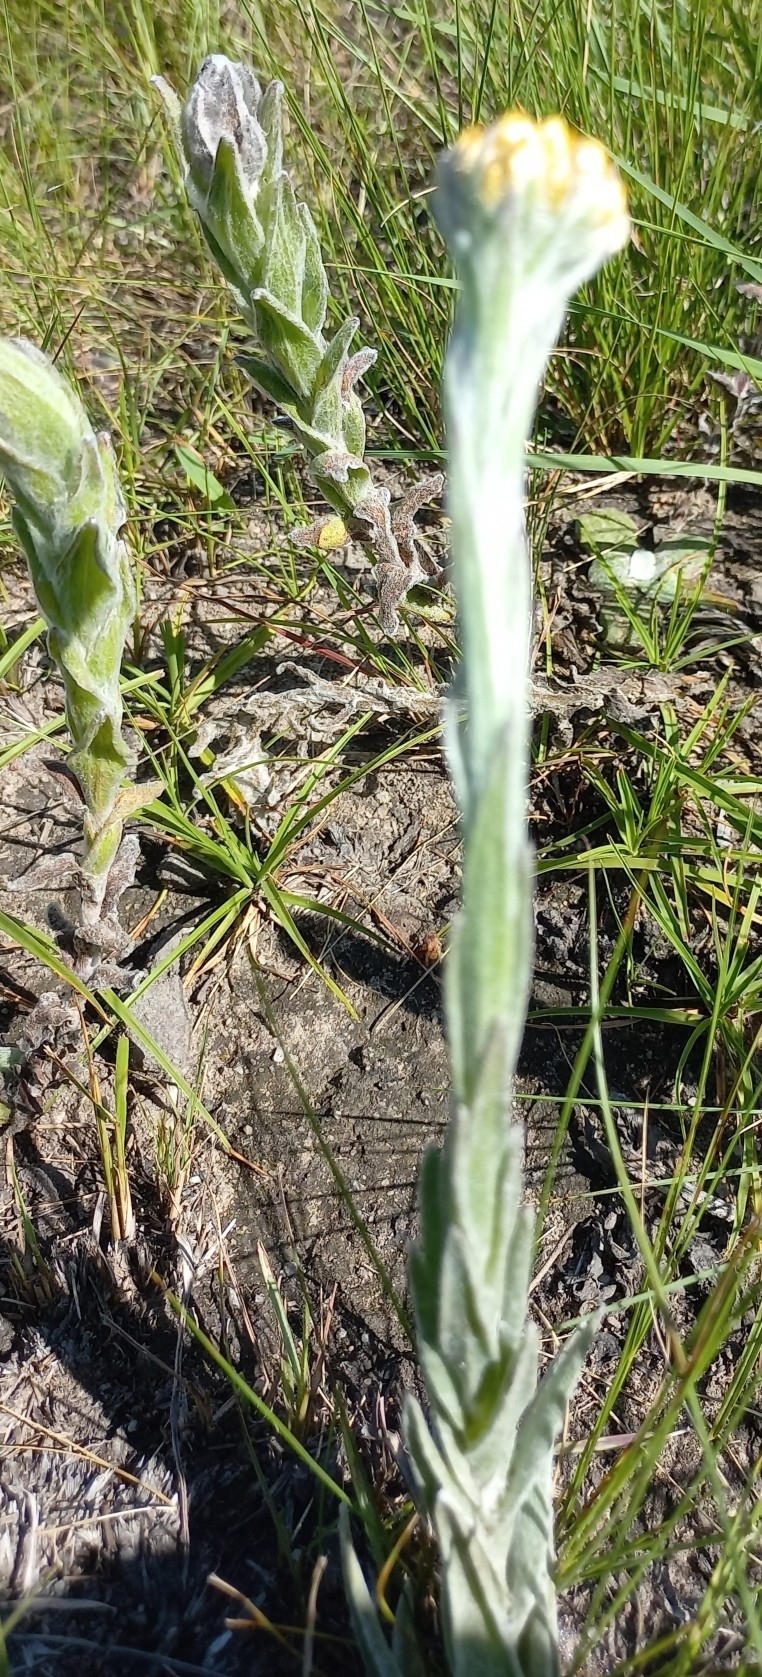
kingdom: Plantae
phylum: Tracheophyta
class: Magnoliopsida
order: Asterales
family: Asteraceae
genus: Helichrysum
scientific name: Helichrysum auriceps
